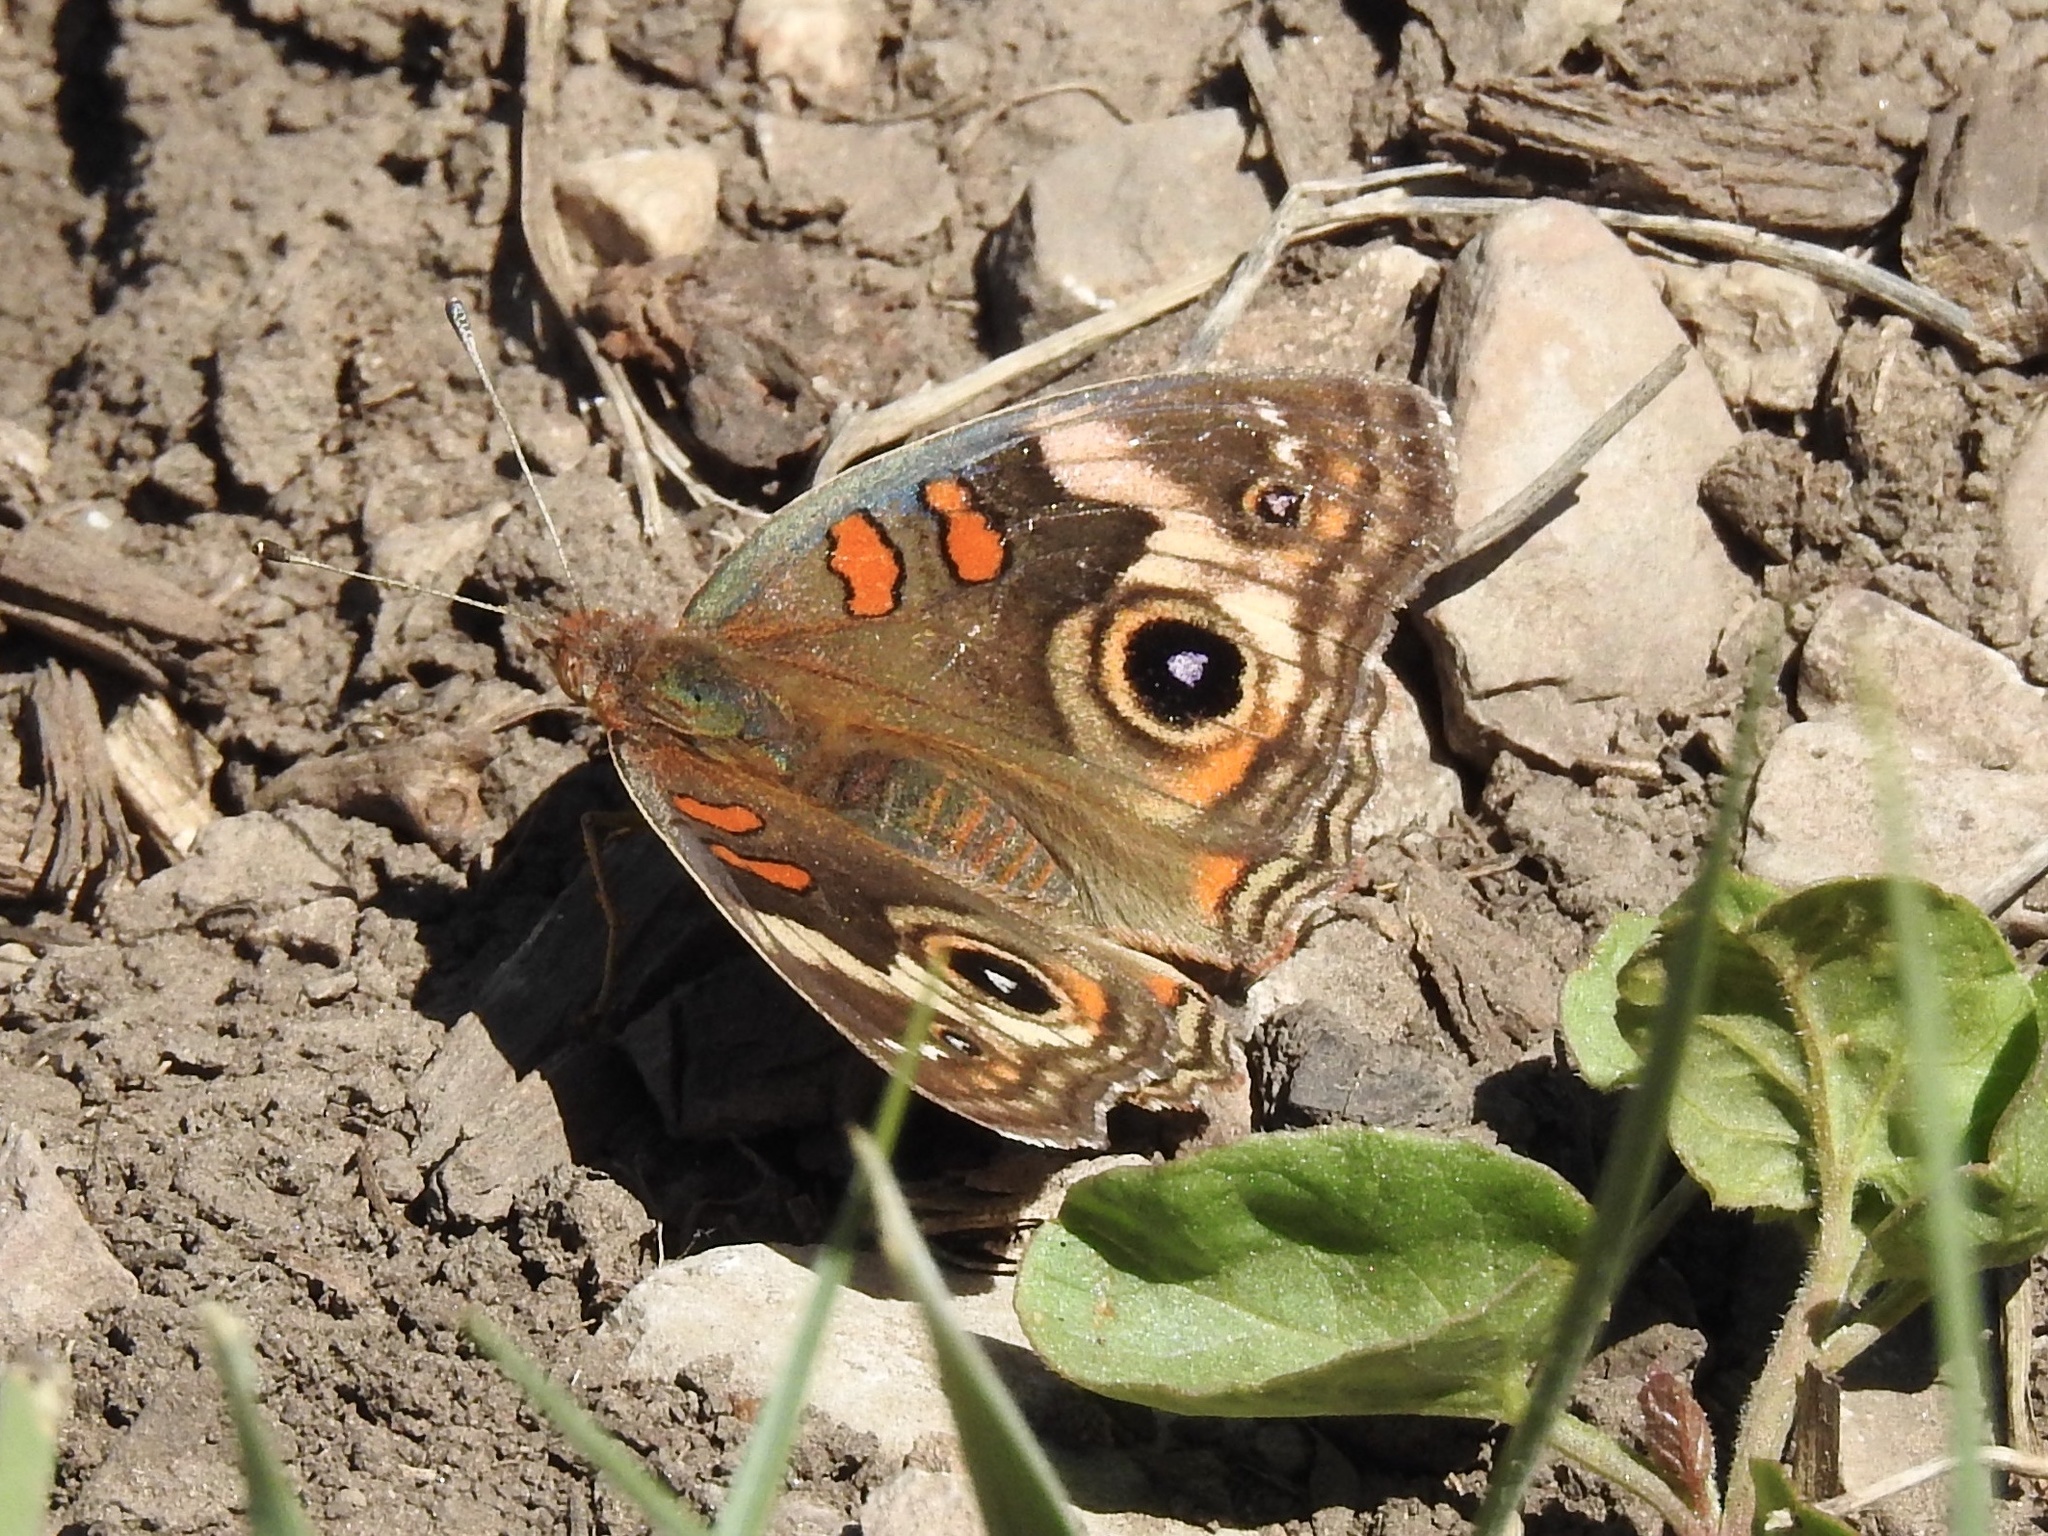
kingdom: Animalia
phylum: Arthropoda
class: Insecta
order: Lepidoptera
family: Nymphalidae
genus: Junonia
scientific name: Junonia grisea
